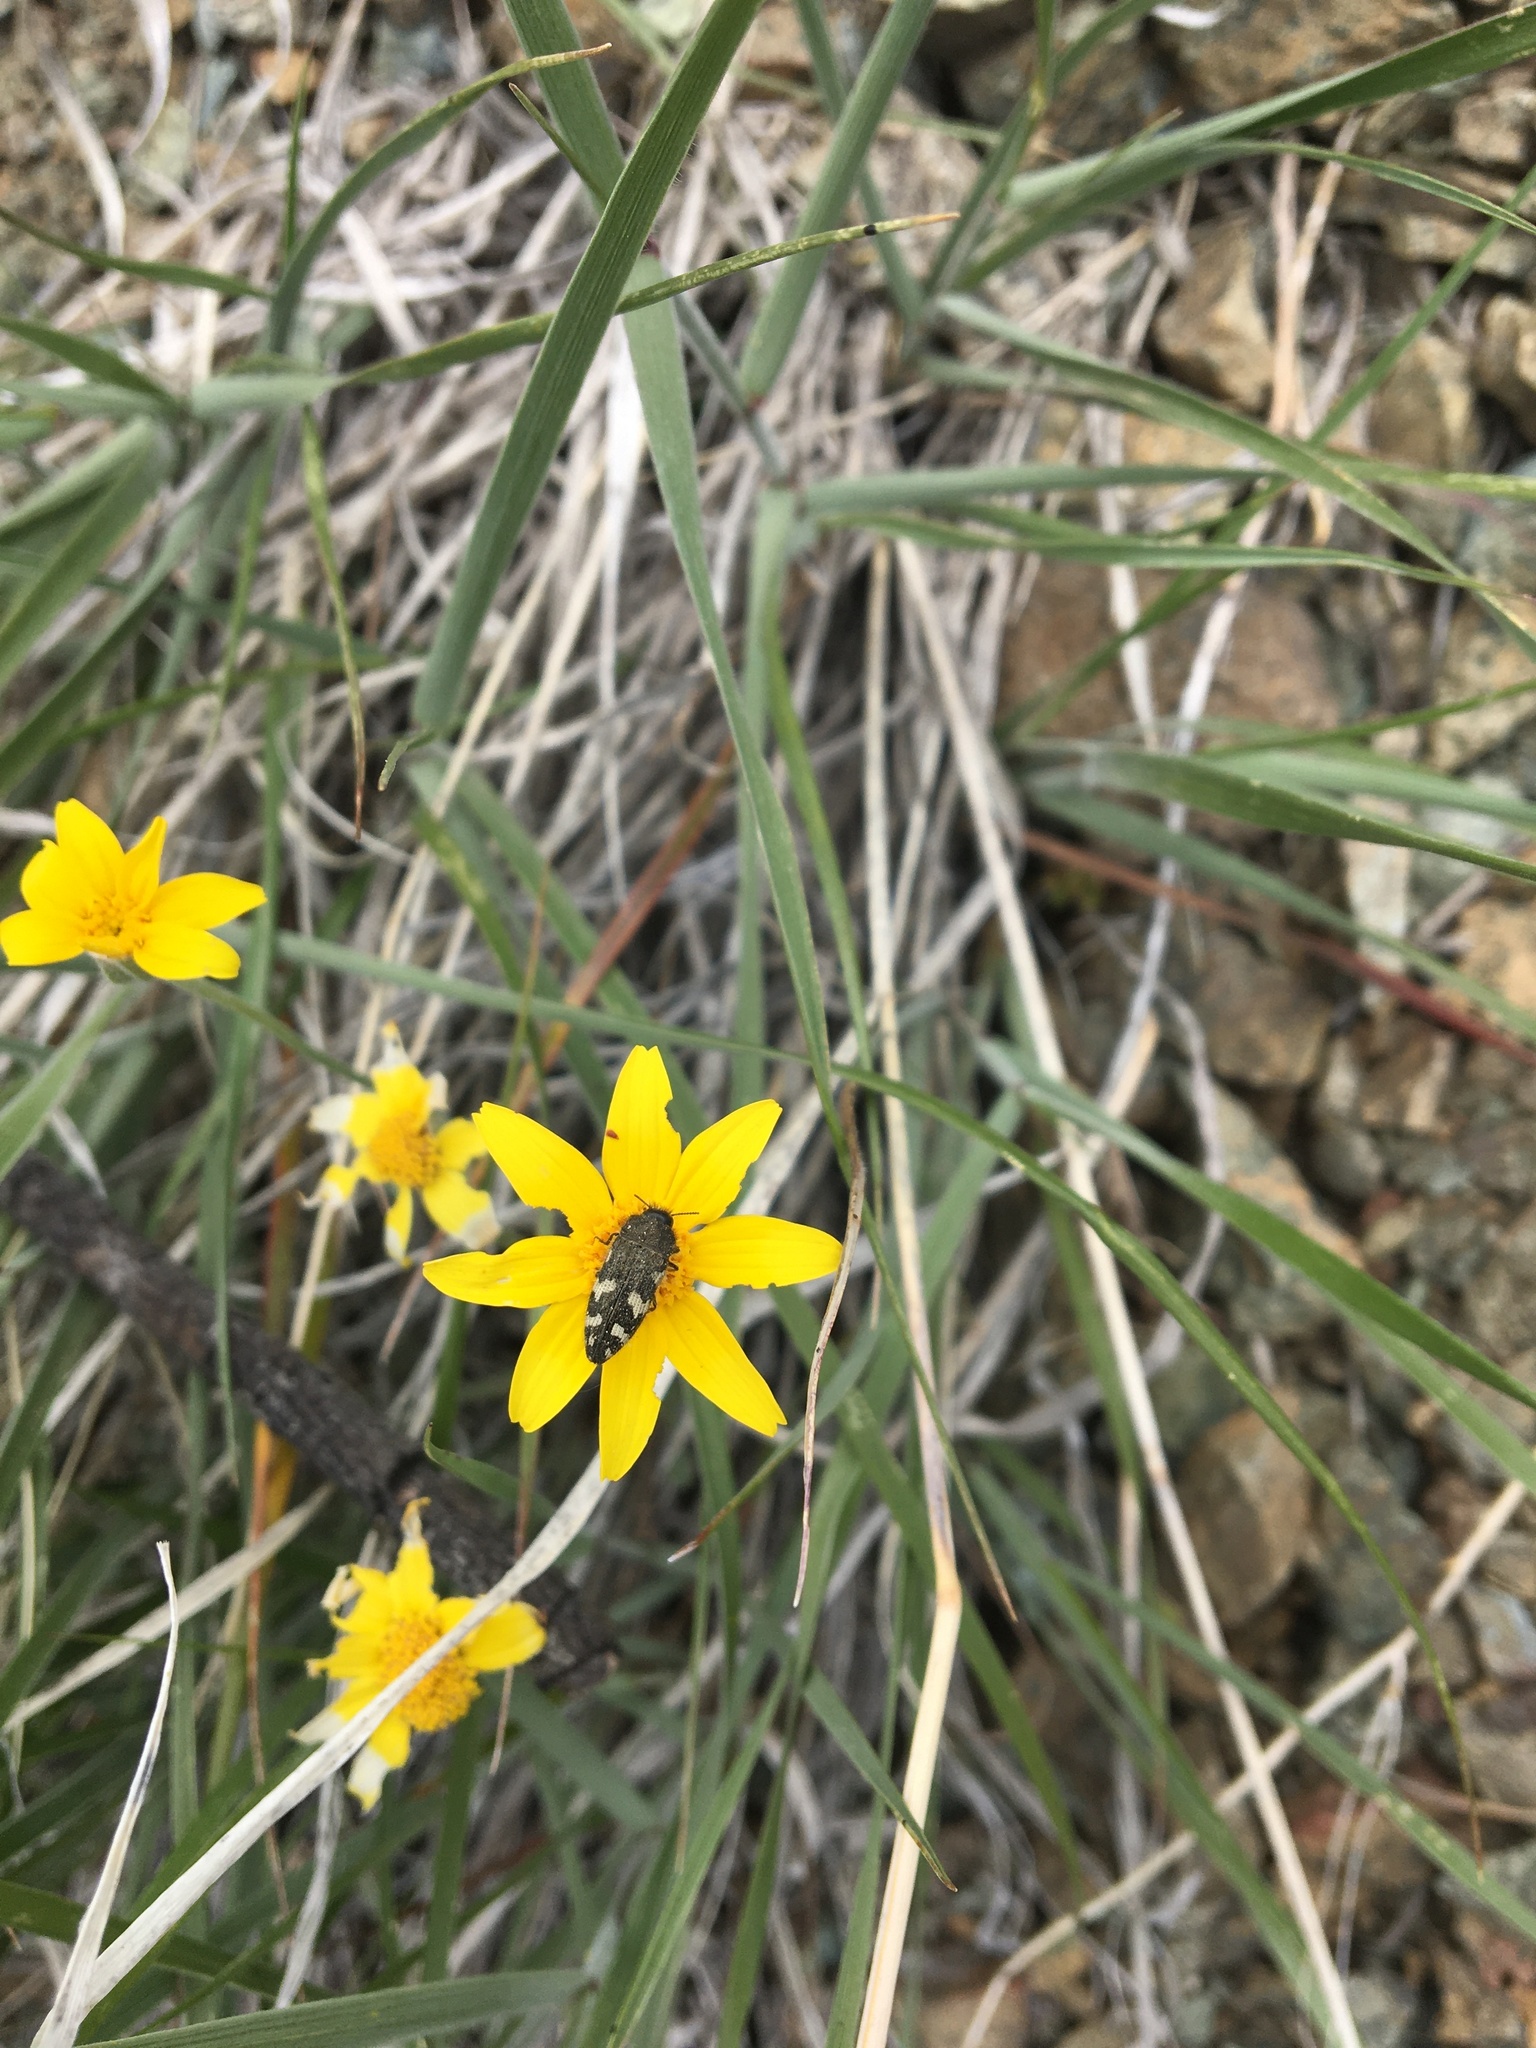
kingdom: Animalia
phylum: Arthropoda
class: Insecta
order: Coleoptera
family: Buprestidae
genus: Acmaeodera
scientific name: Acmaeodera idahoensis
